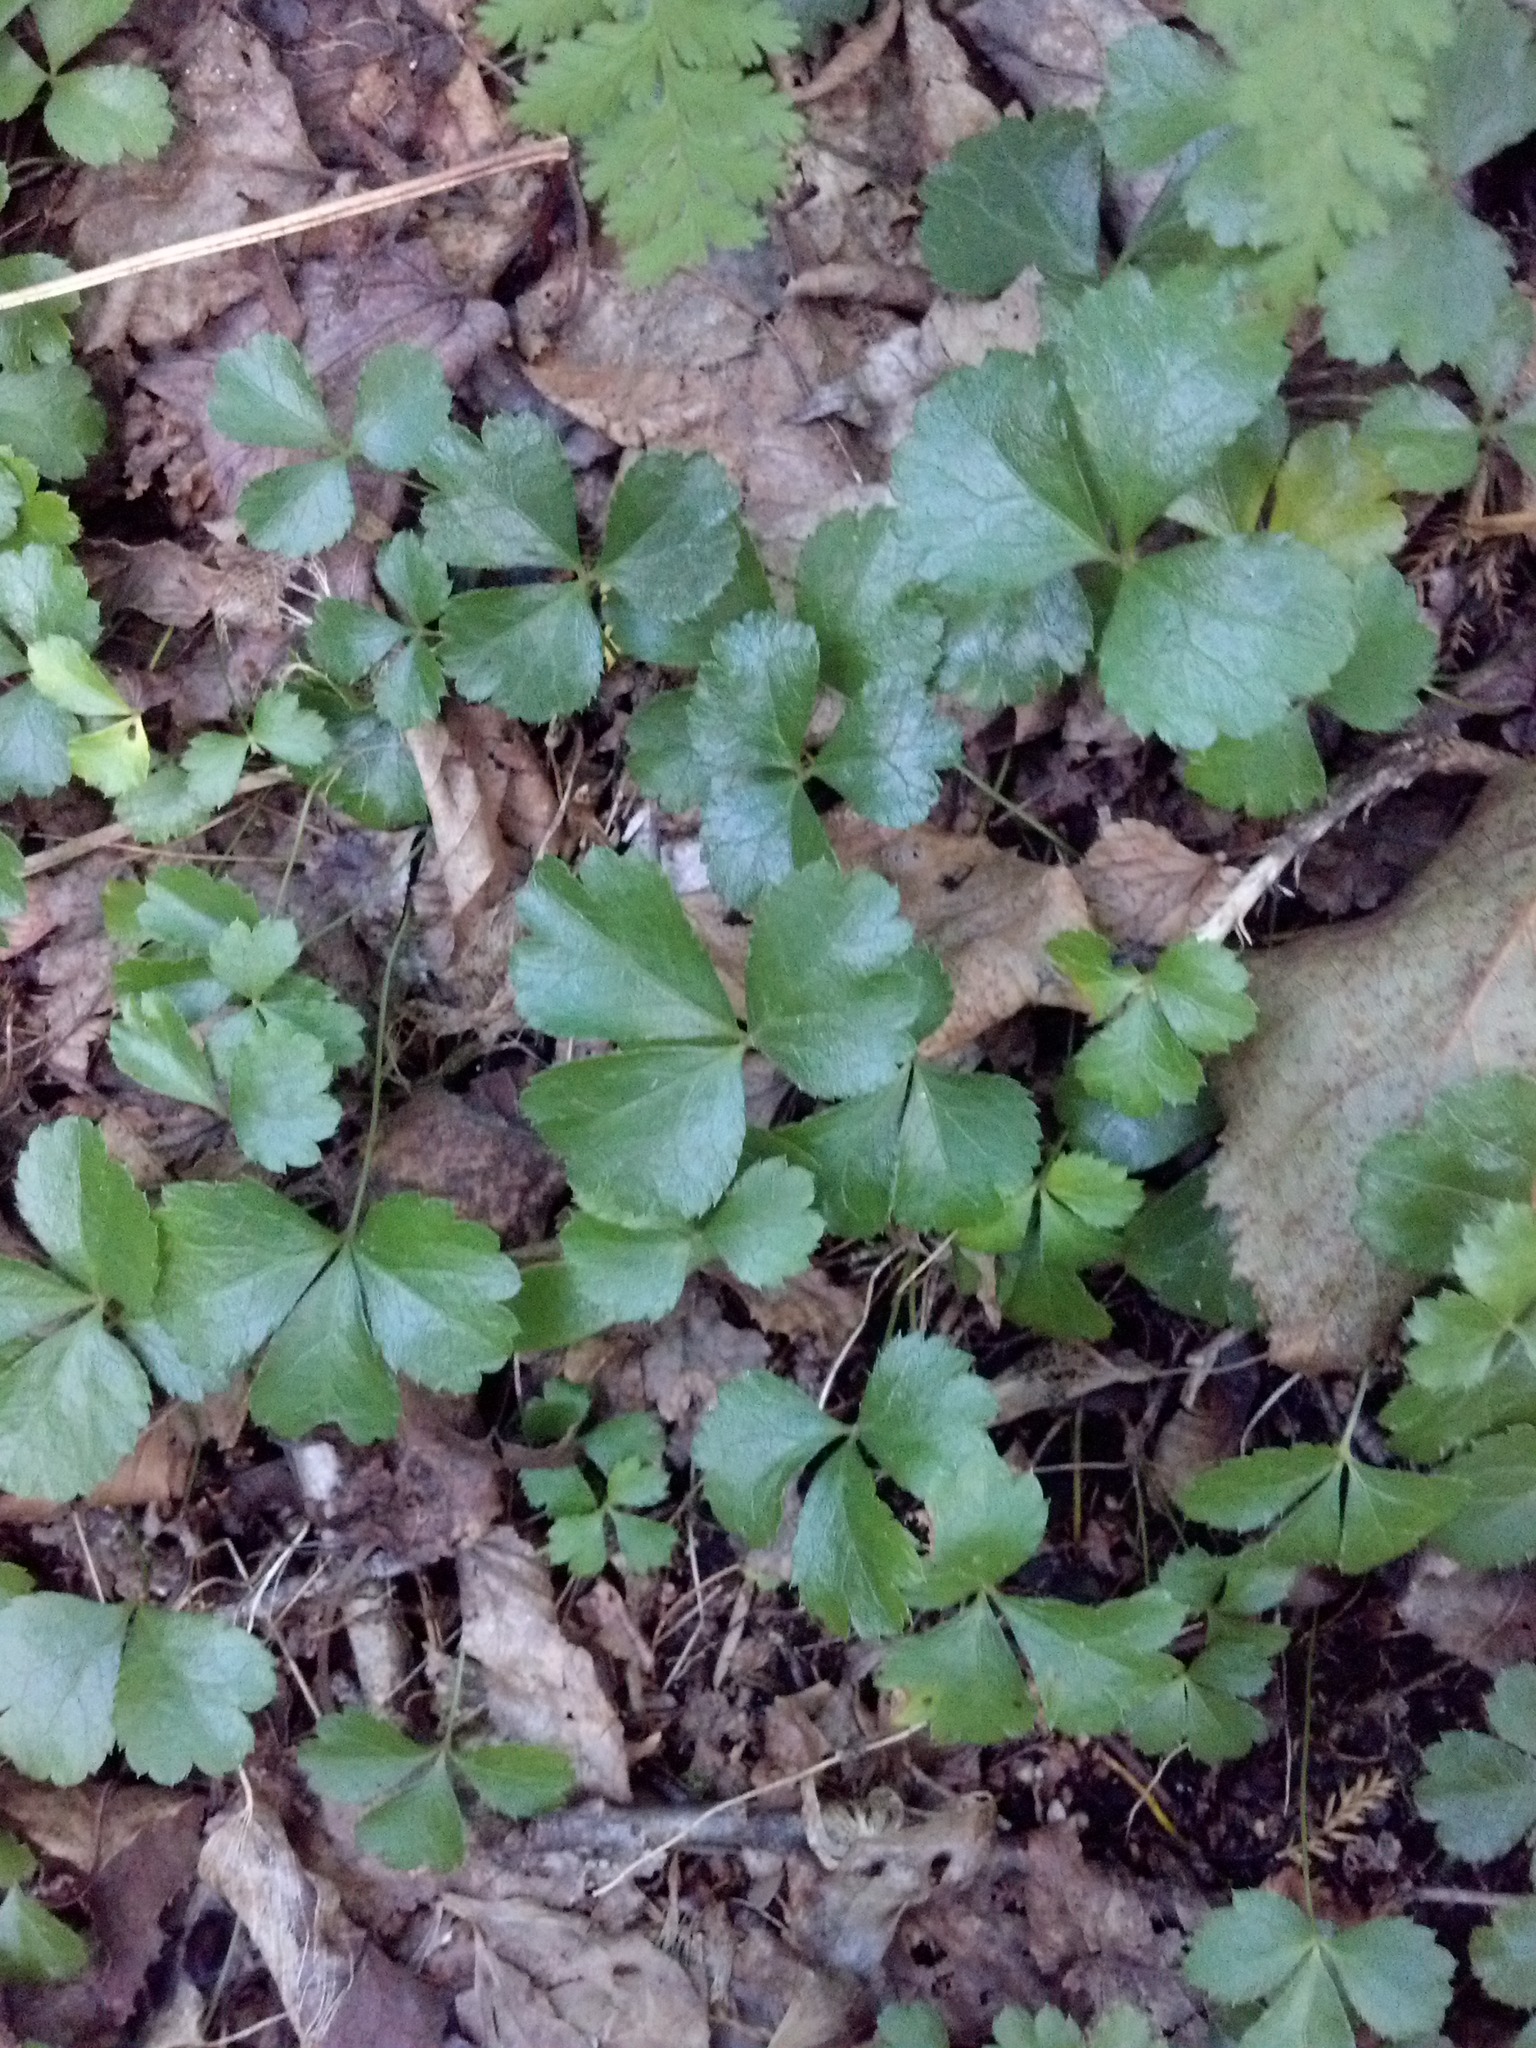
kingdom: Plantae
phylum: Tracheophyta
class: Magnoliopsida
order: Ranunculales
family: Ranunculaceae
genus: Coptis
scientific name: Coptis trifolia
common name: Canker-root
